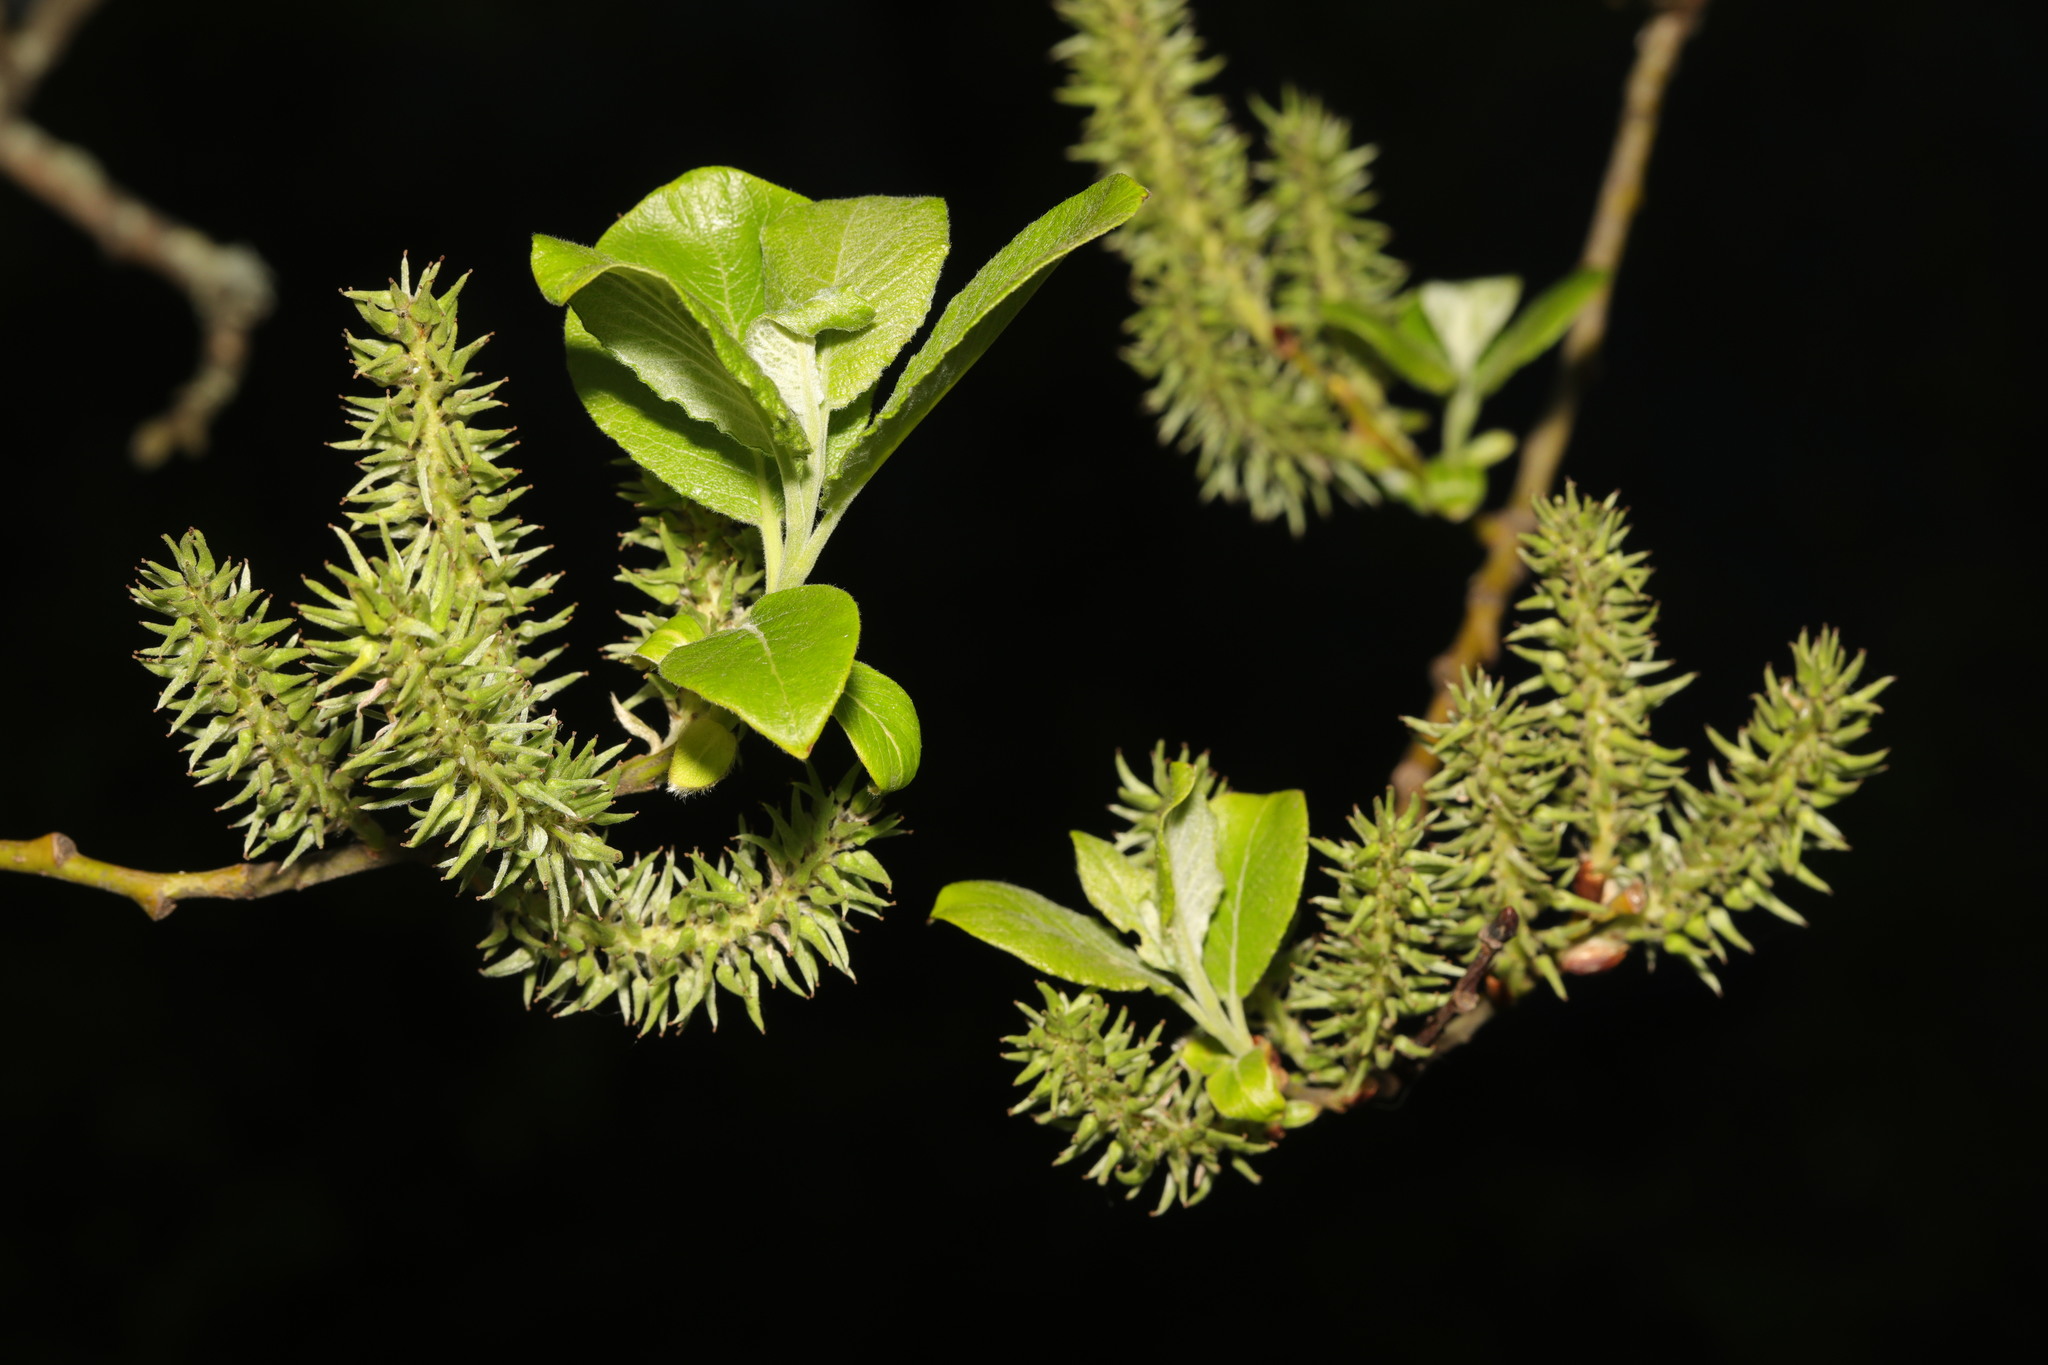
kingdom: Plantae
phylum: Tracheophyta
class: Magnoliopsida
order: Malpighiales
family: Salicaceae
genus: Salix
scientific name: Salix caprea
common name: Goat willow
